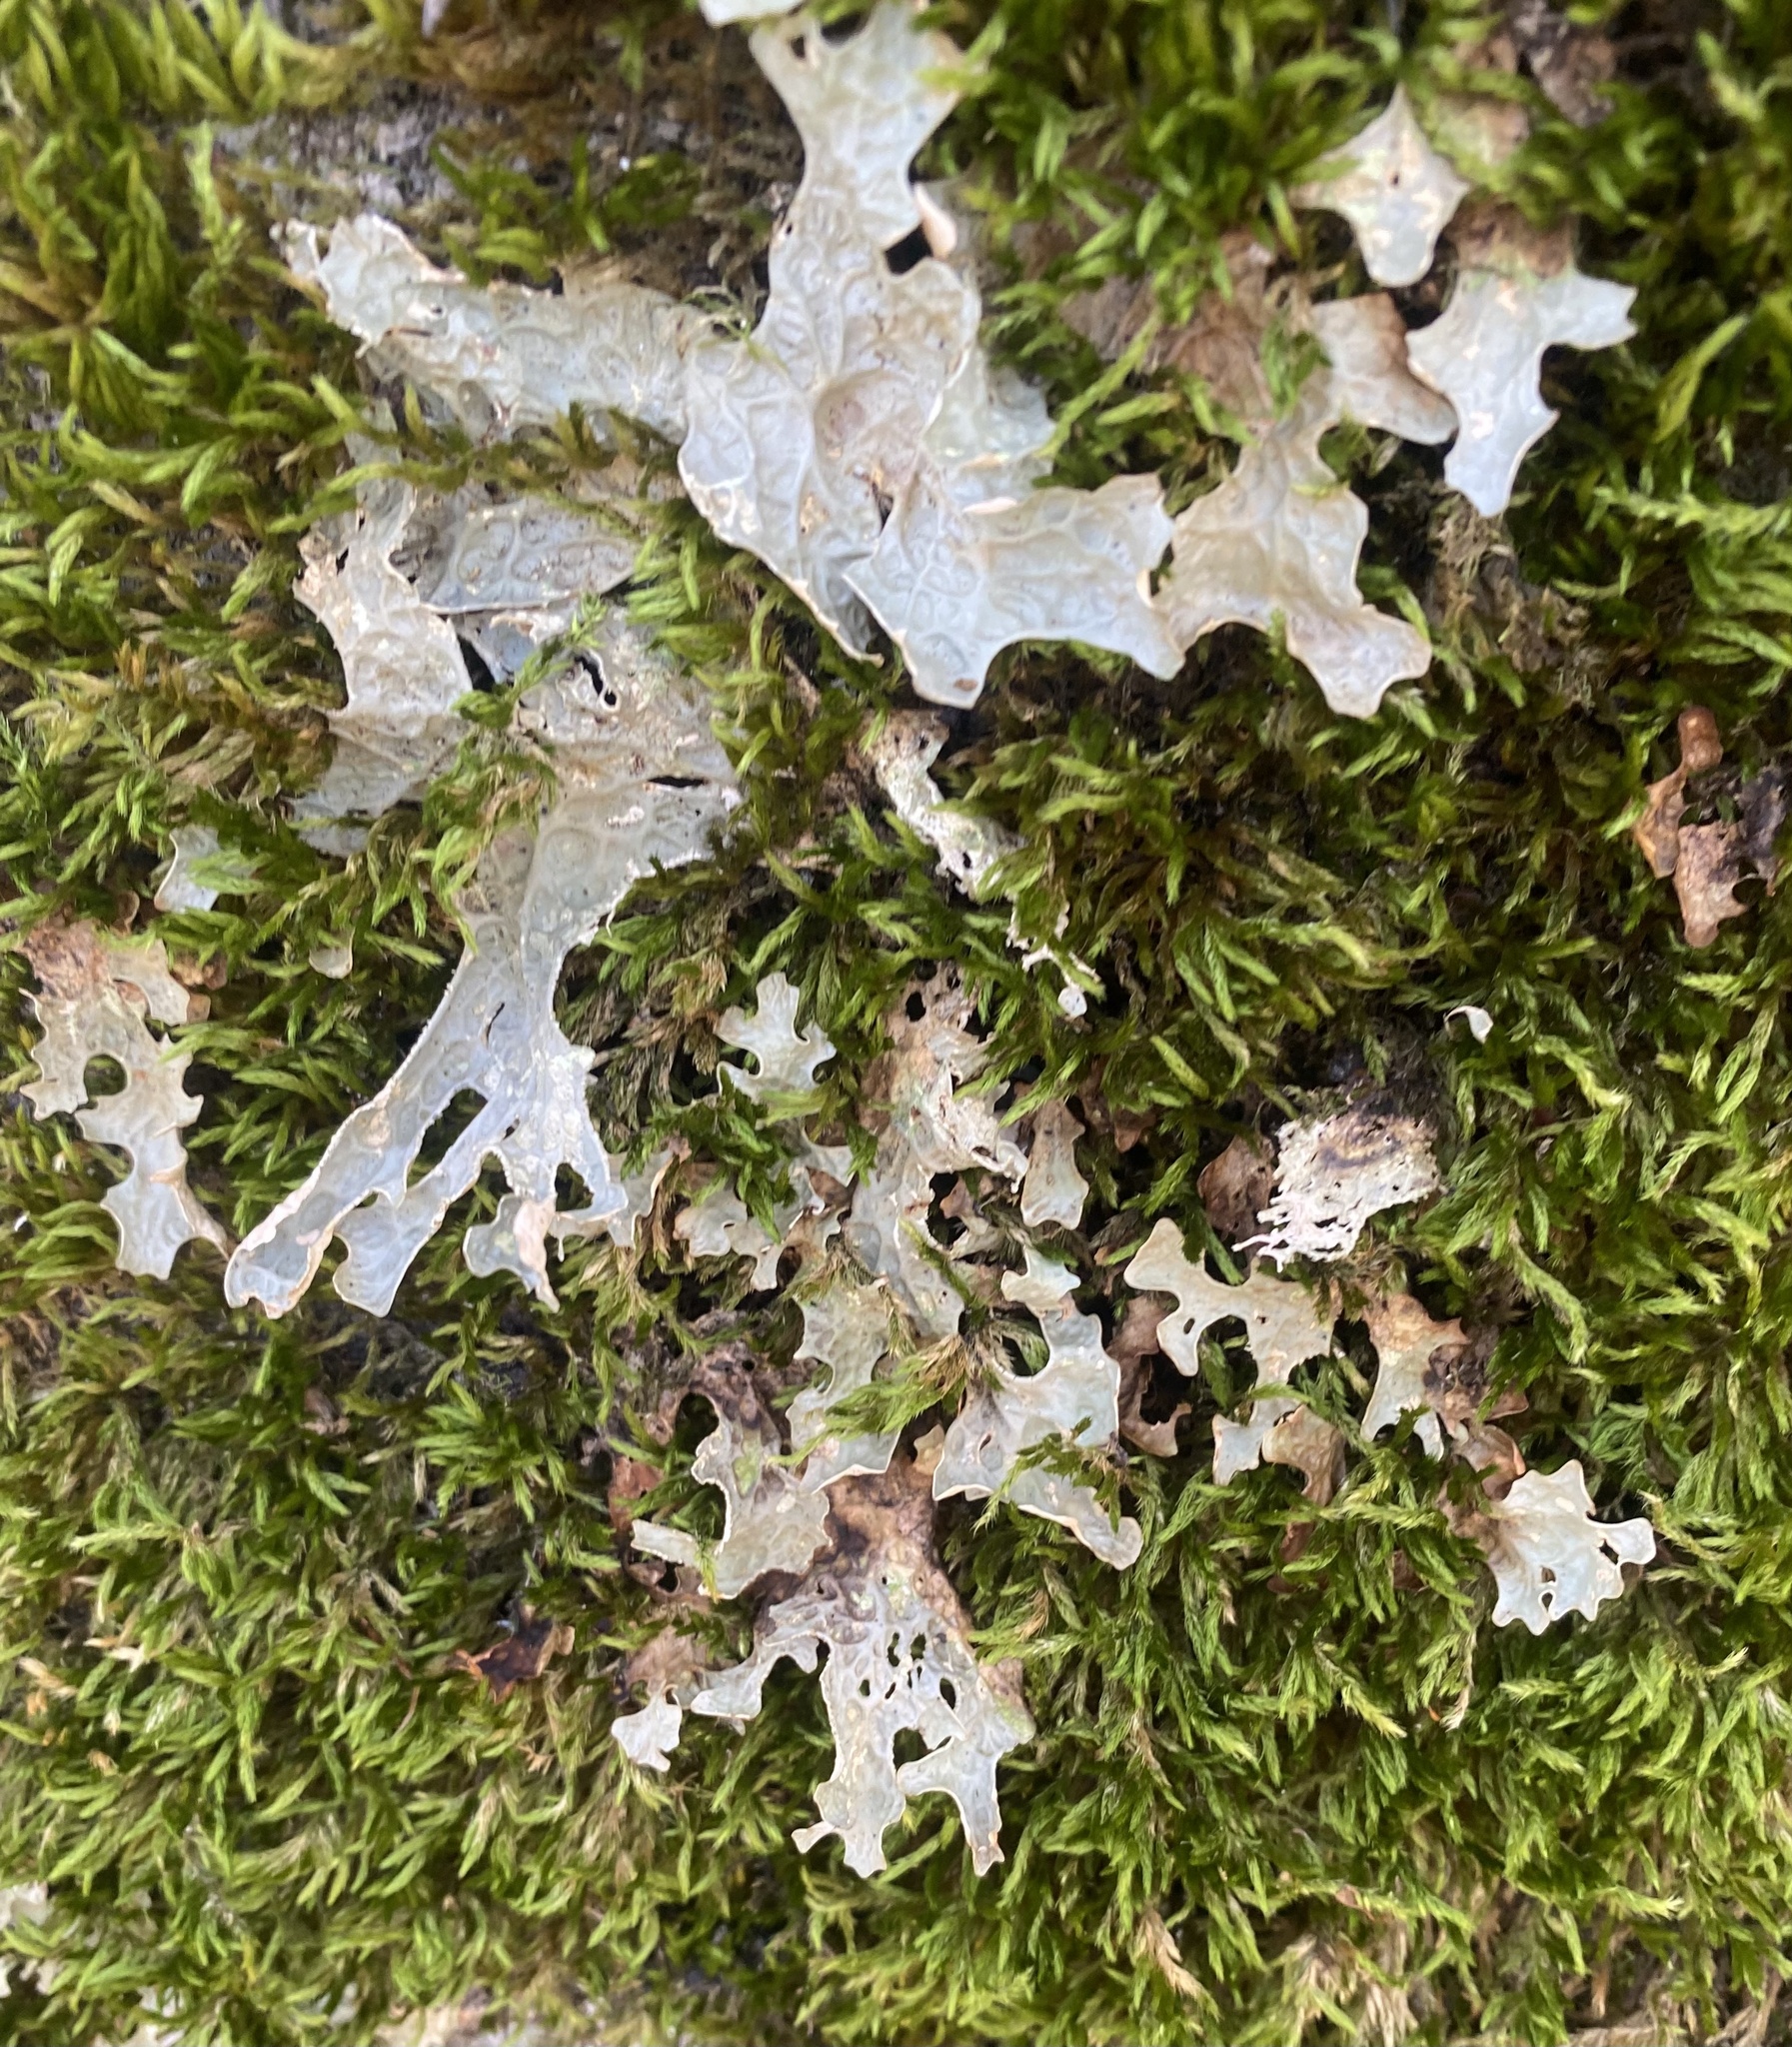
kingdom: Fungi
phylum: Ascomycota
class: Lecanoromycetes
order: Peltigerales
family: Lobariaceae
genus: Lobaria
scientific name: Lobaria pulmonaria
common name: Lungwort
